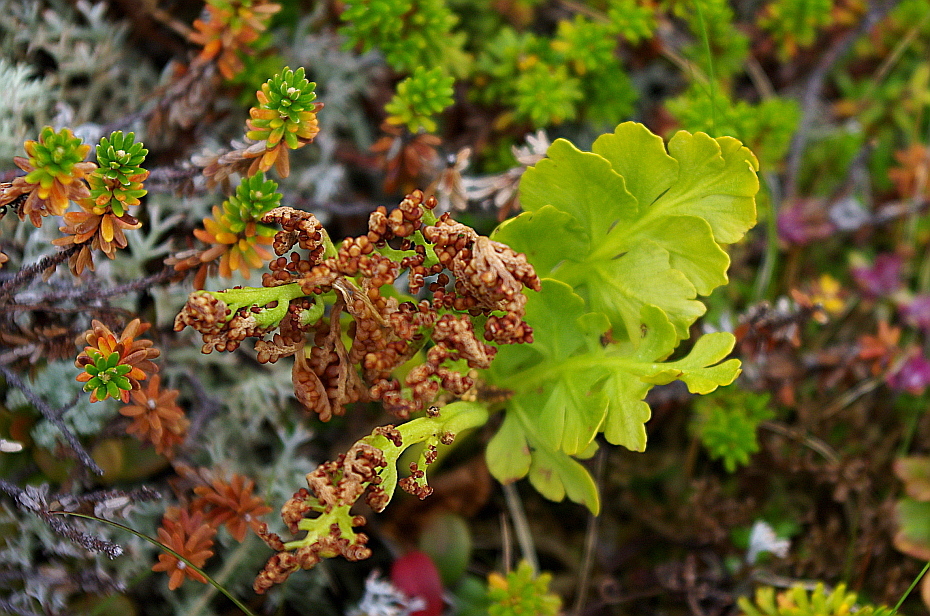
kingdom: Plantae
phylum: Tracheophyta
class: Polypodiopsida
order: Ophioglossales
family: Ophioglossaceae
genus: Botrychium
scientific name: Botrychium boreale
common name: Boreal moonwort
